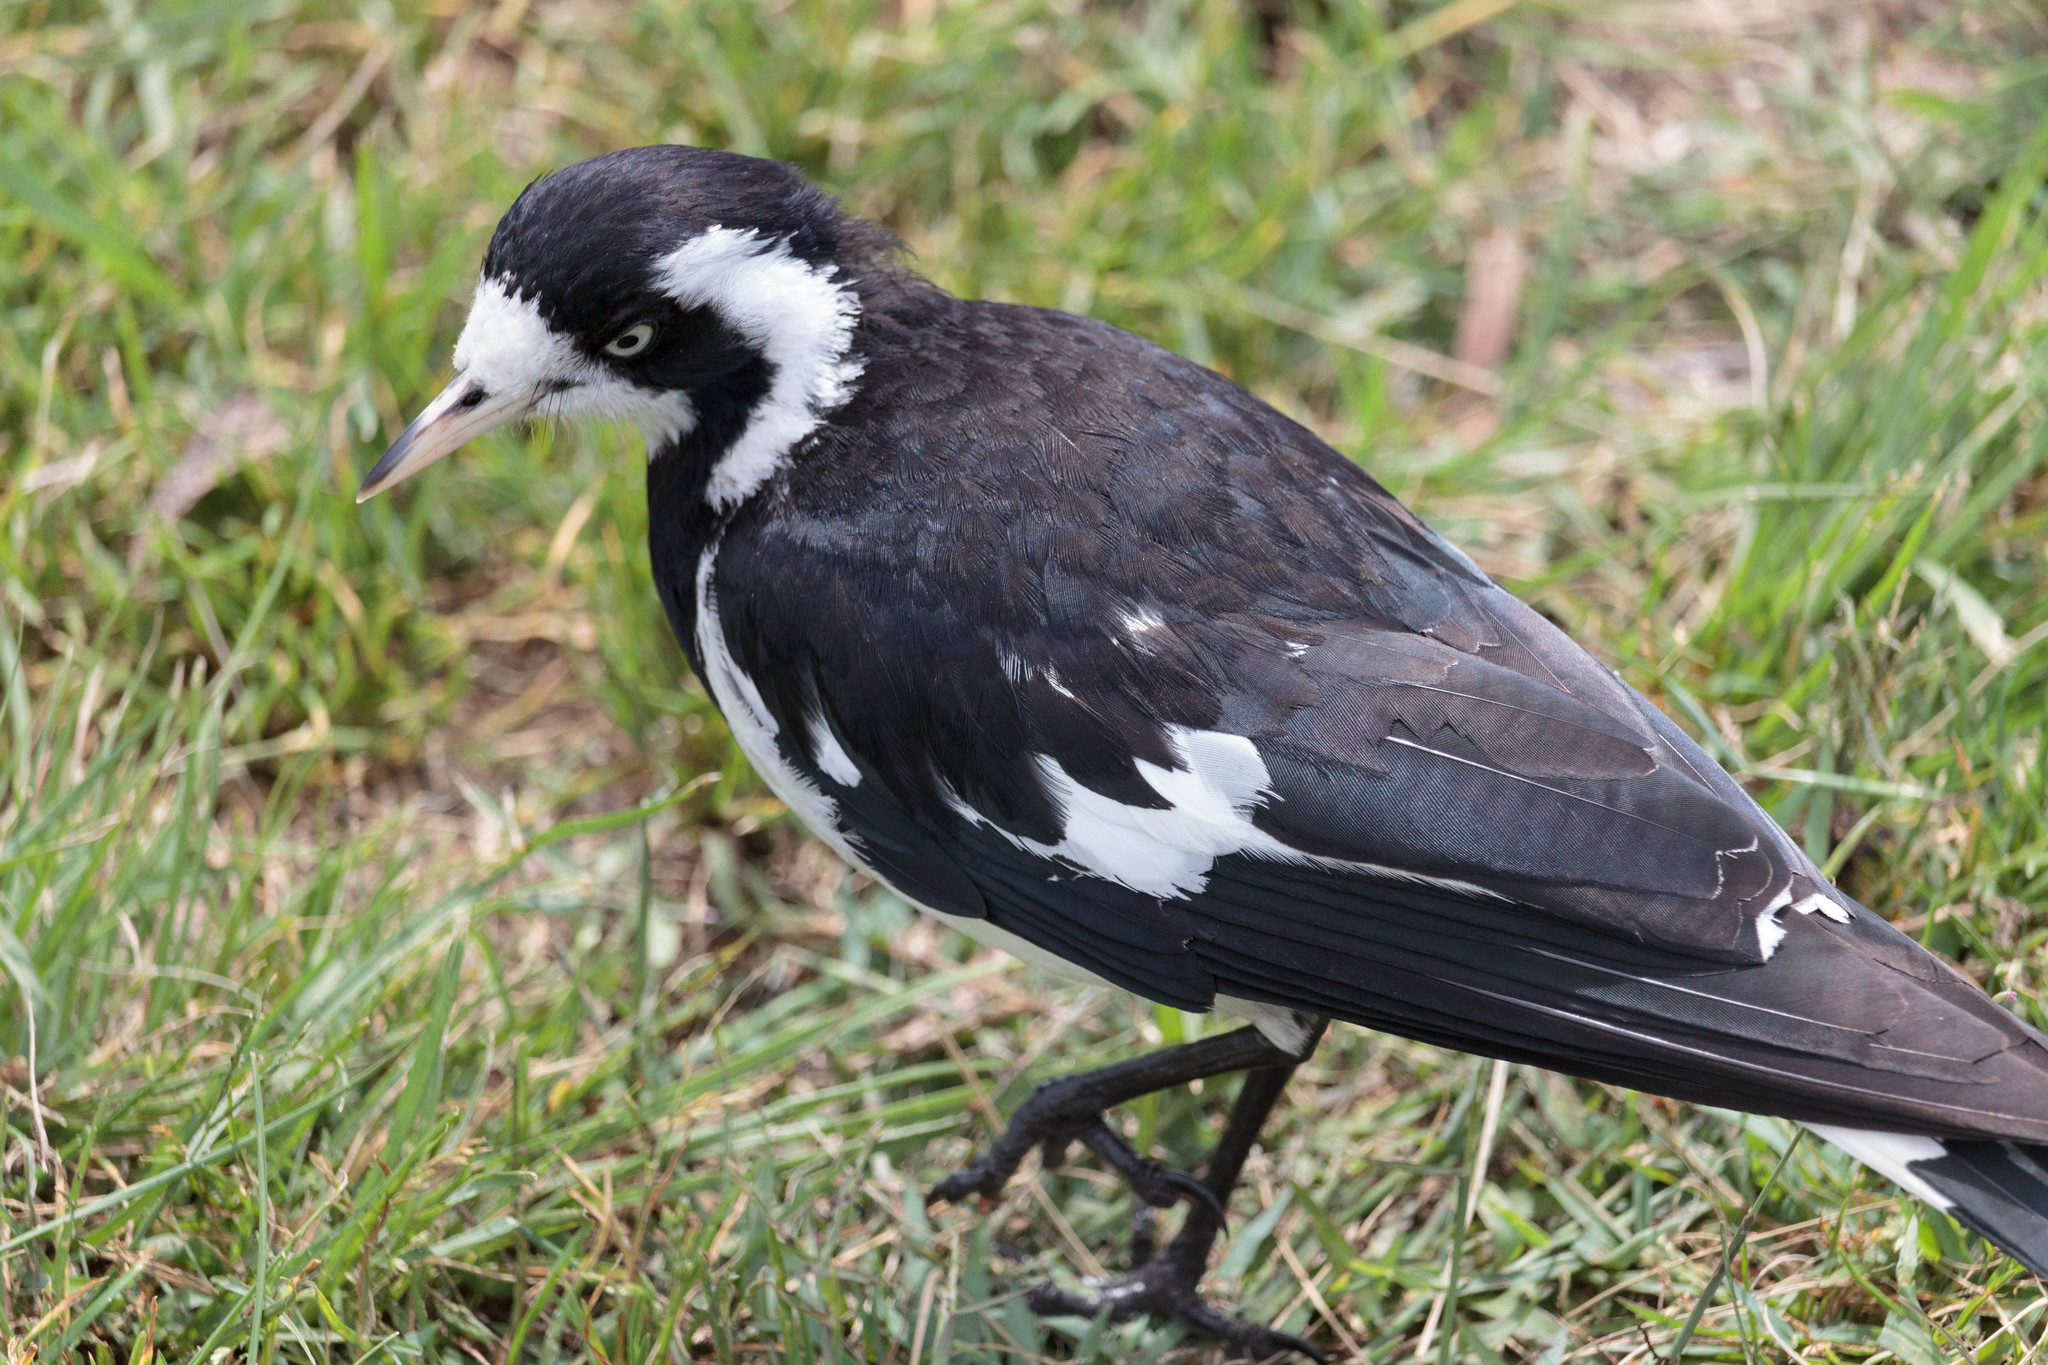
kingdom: Animalia
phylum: Chordata
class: Aves
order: Passeriformes
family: Monarchidae
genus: Grallina
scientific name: Grallina cyanoleuca
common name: Magpie-lark
